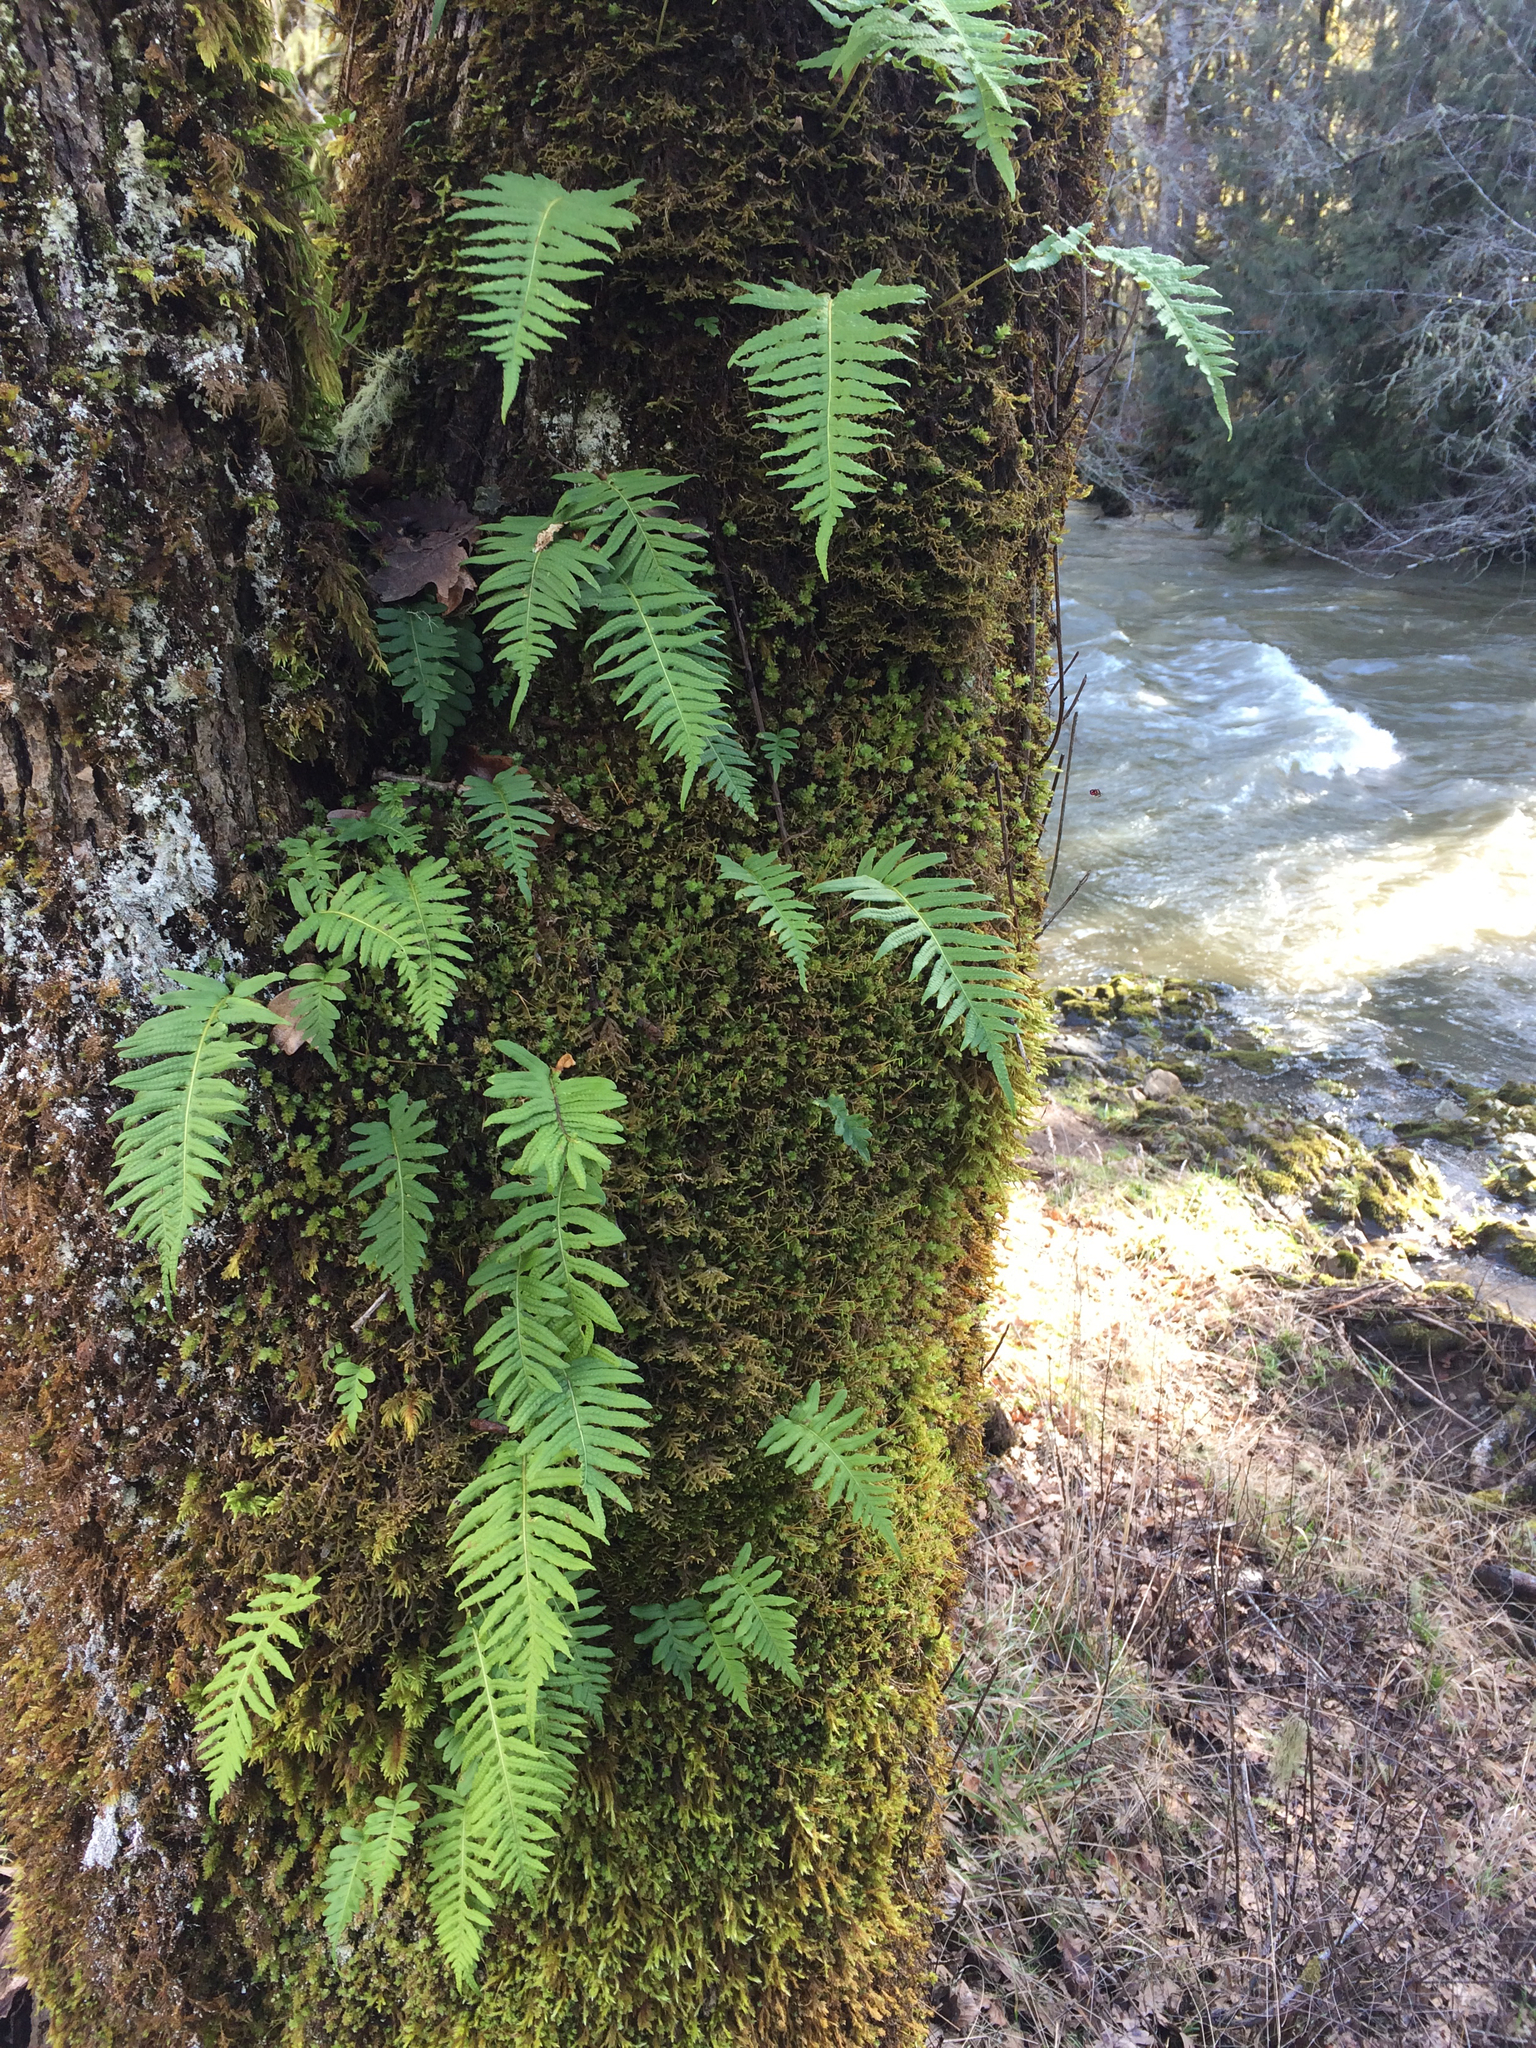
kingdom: Plantae
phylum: Tracheophyta
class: Polypodiopsida
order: Polypodiales
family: Polypodiaceae
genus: Polypodium
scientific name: Polypodium glycyrrhiza
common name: Licorice fern
